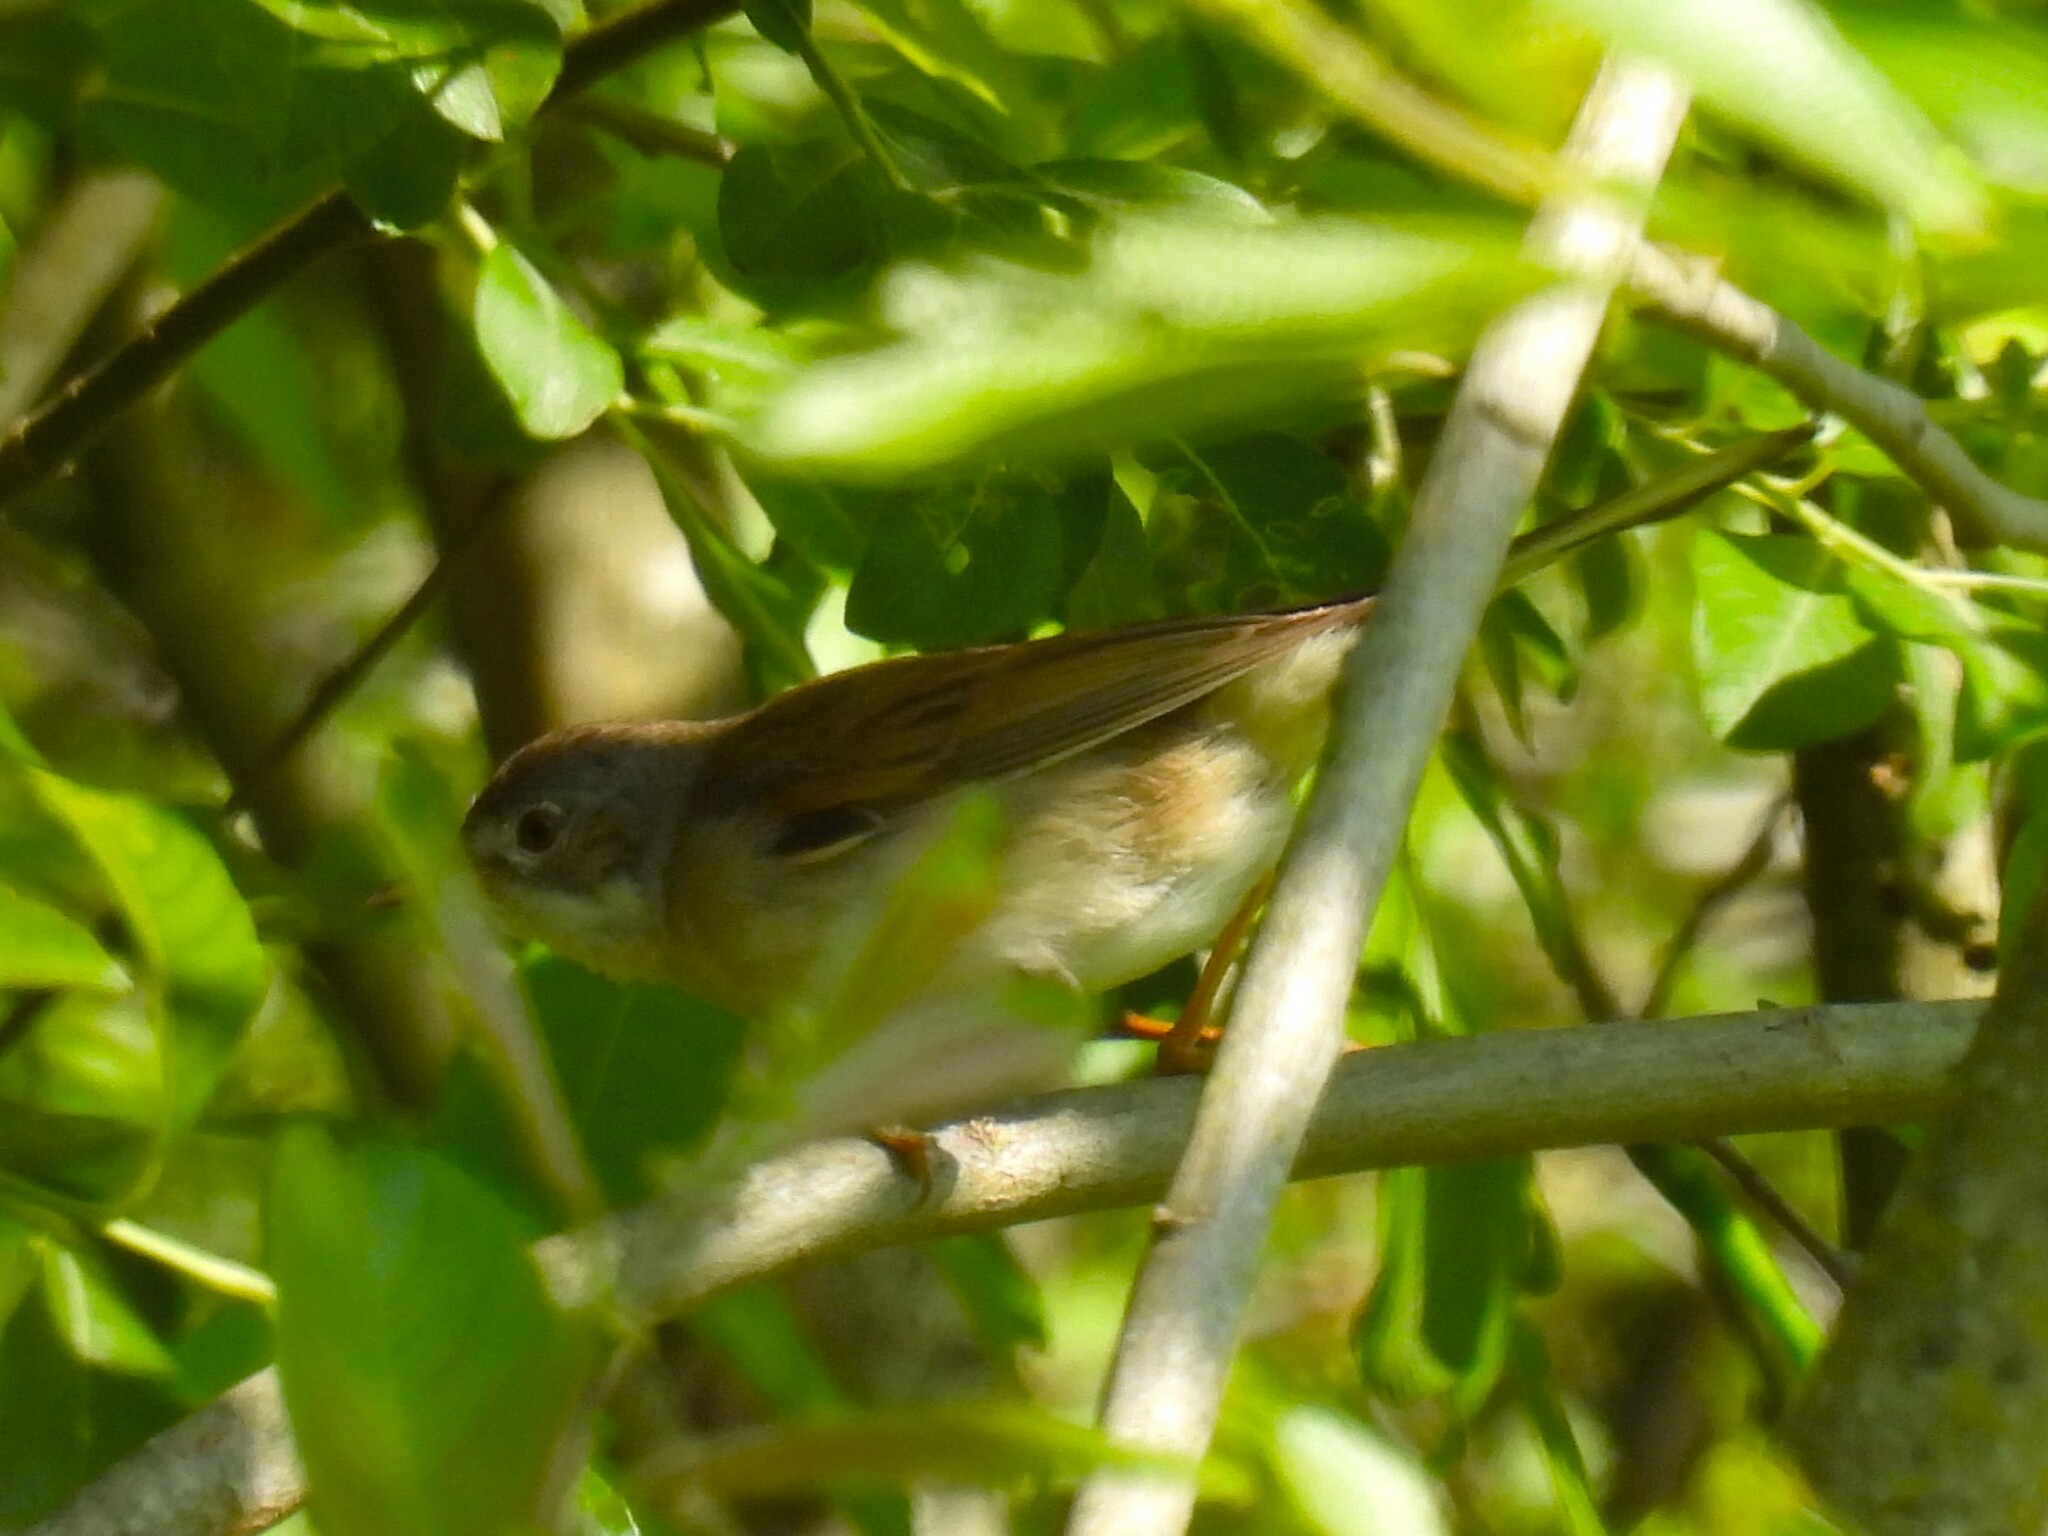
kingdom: Animalia
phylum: Chordata
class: Aves
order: Passeriformes
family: Sylviidae
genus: Sylvia
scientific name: Sylvia communis
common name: Common whitethroat
